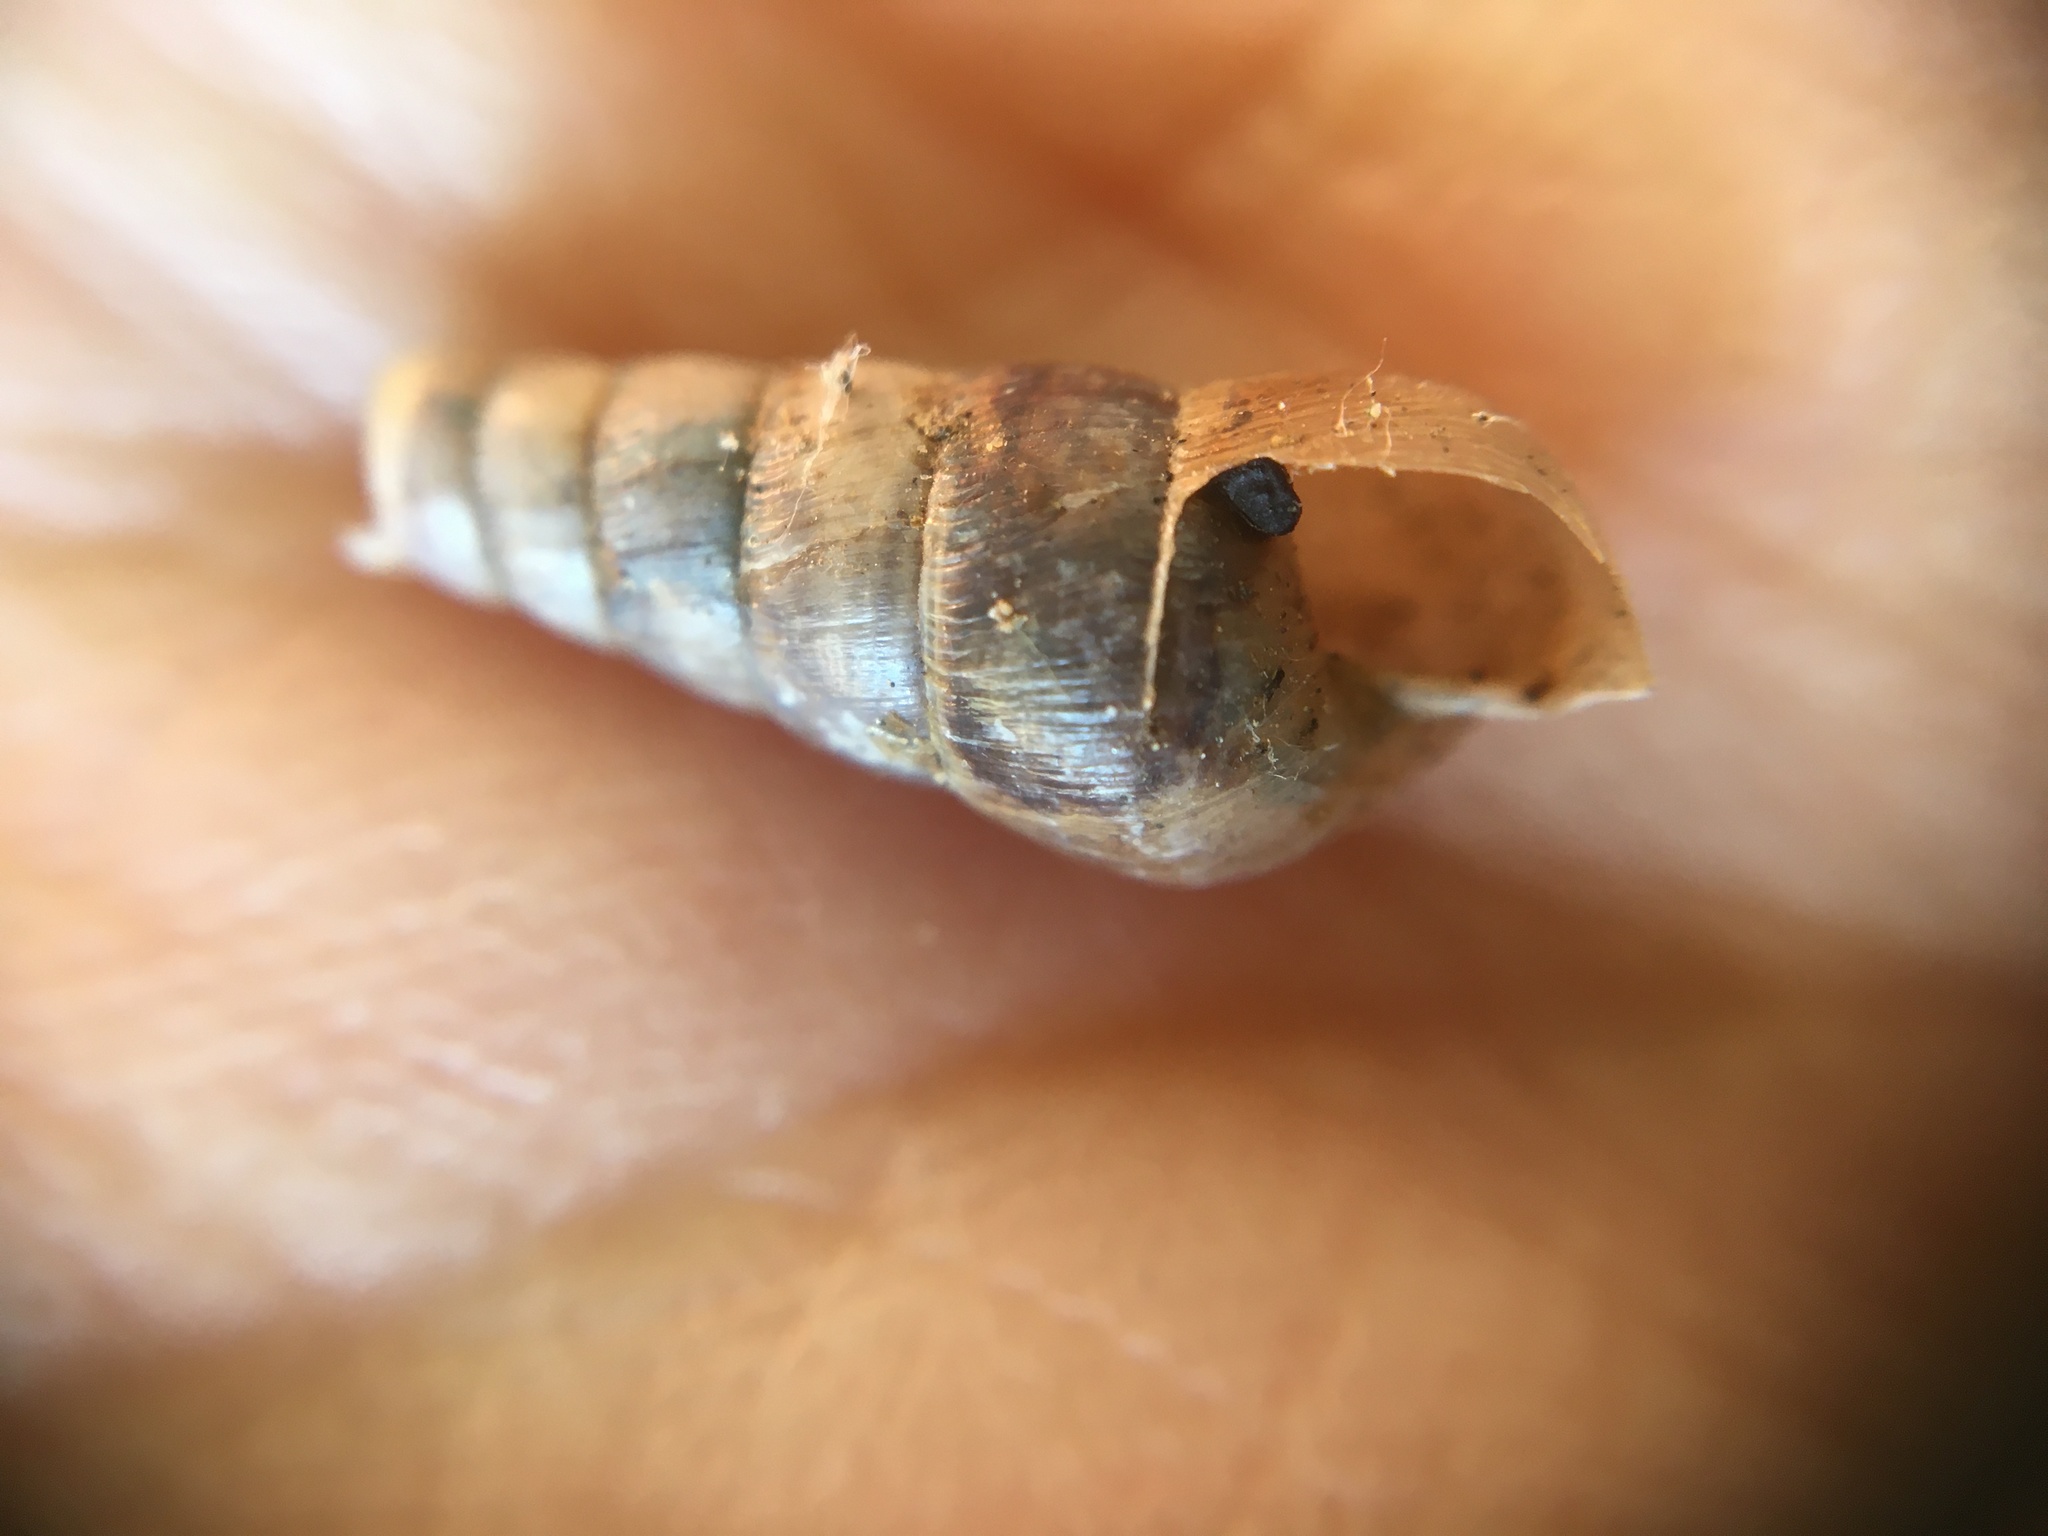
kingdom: Animalia
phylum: Mollusca
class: Gastropoda
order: Stylommatophora
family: Achatinidae
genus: Rumina
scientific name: Rumina decollata
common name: Decollate snail
